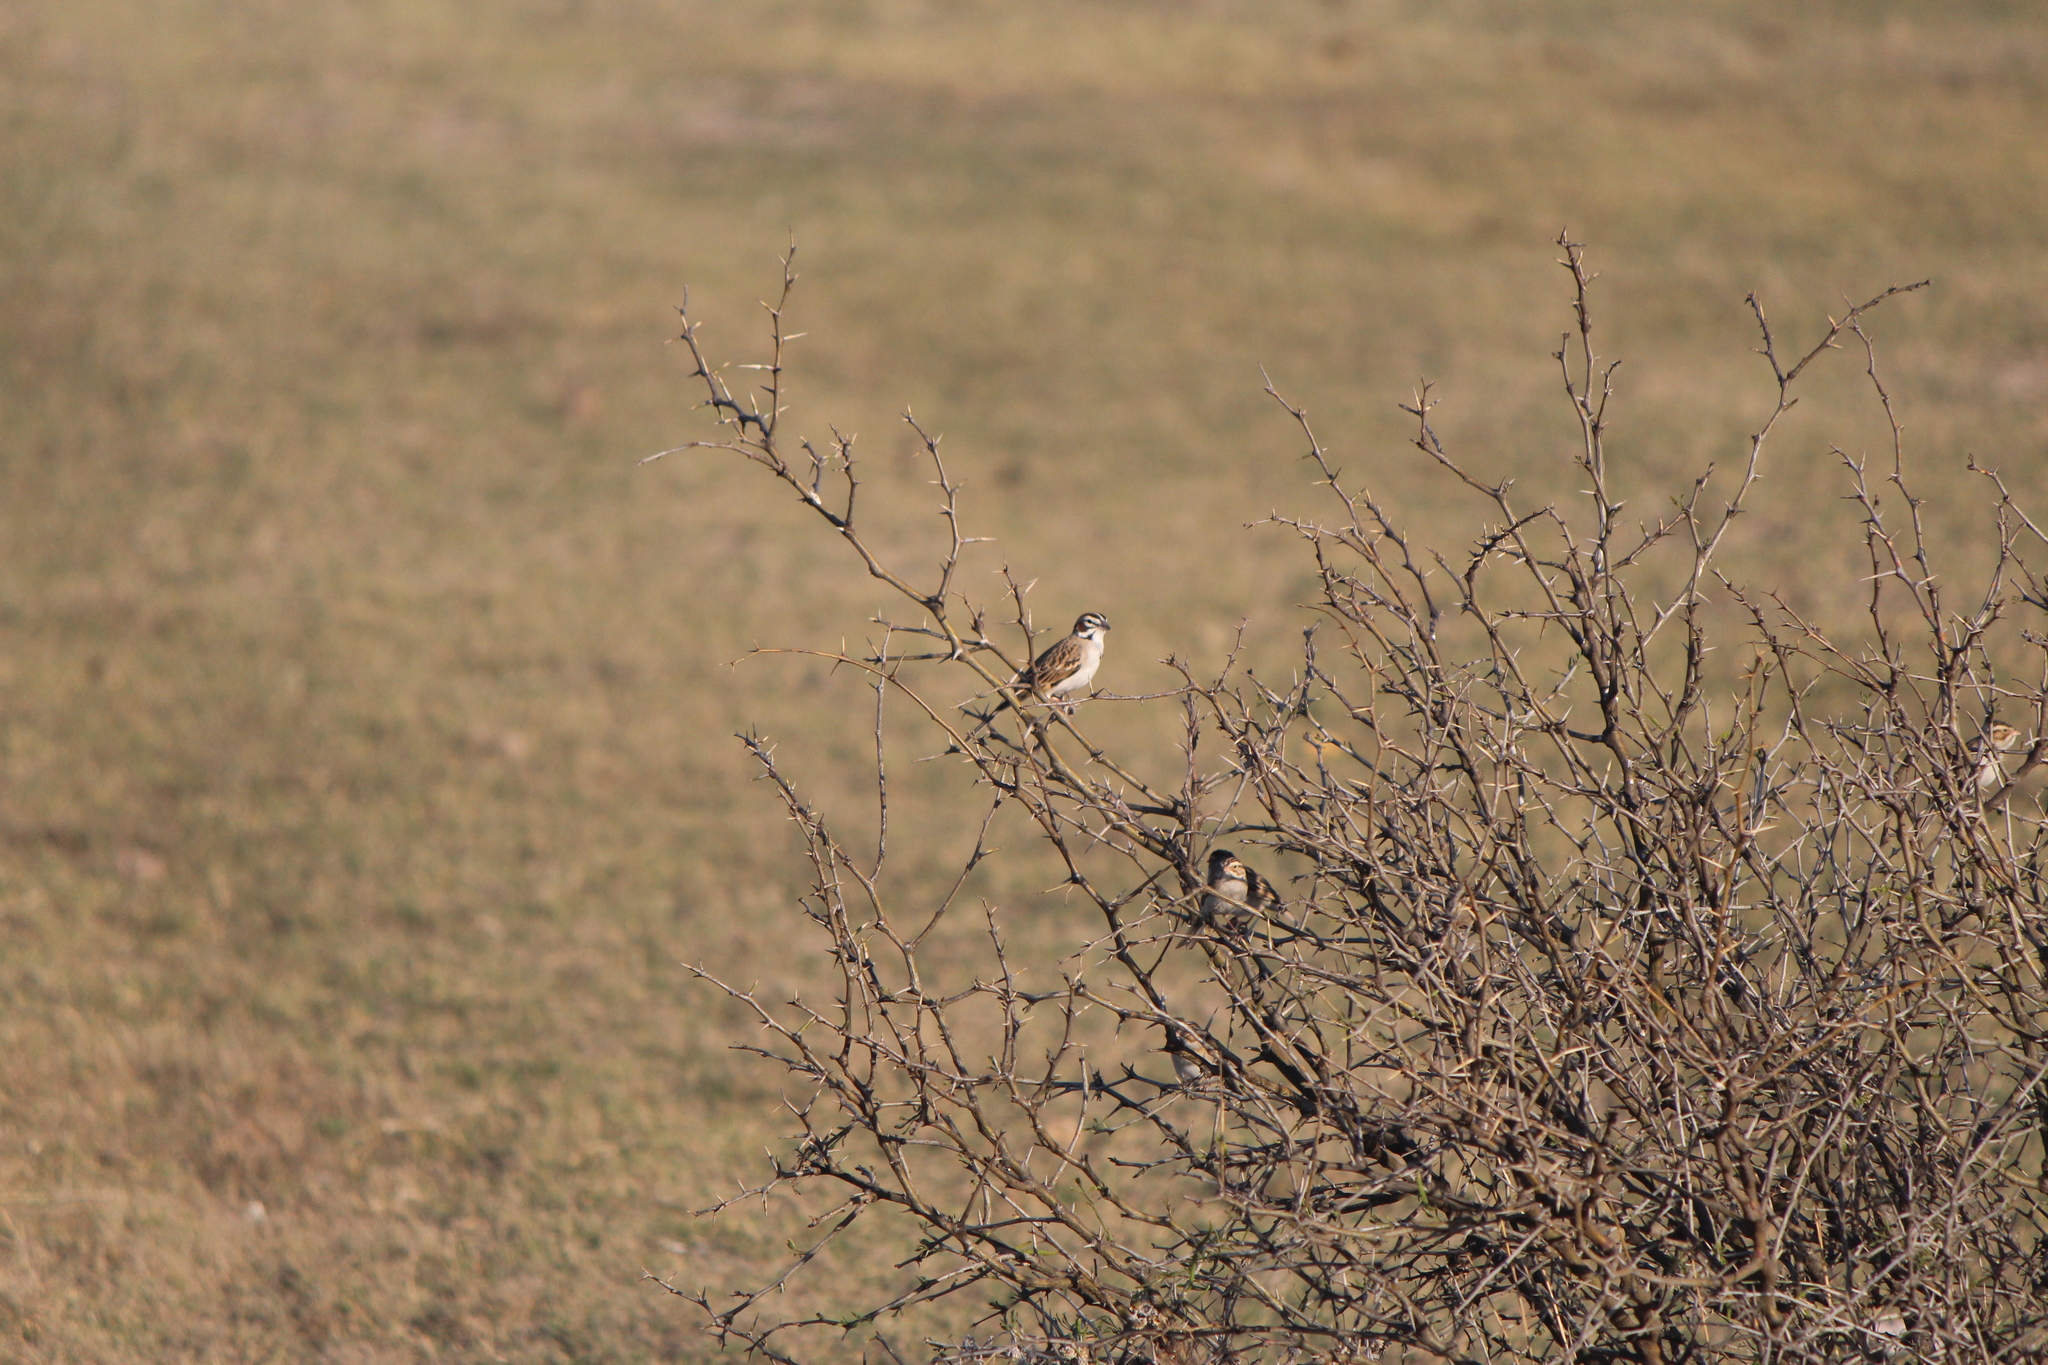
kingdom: Animalia
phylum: Chordata
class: Aves
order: Passeriformes
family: Passerellidae
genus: Chondestes
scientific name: Chondestes grammacus
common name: Lark sparrow
